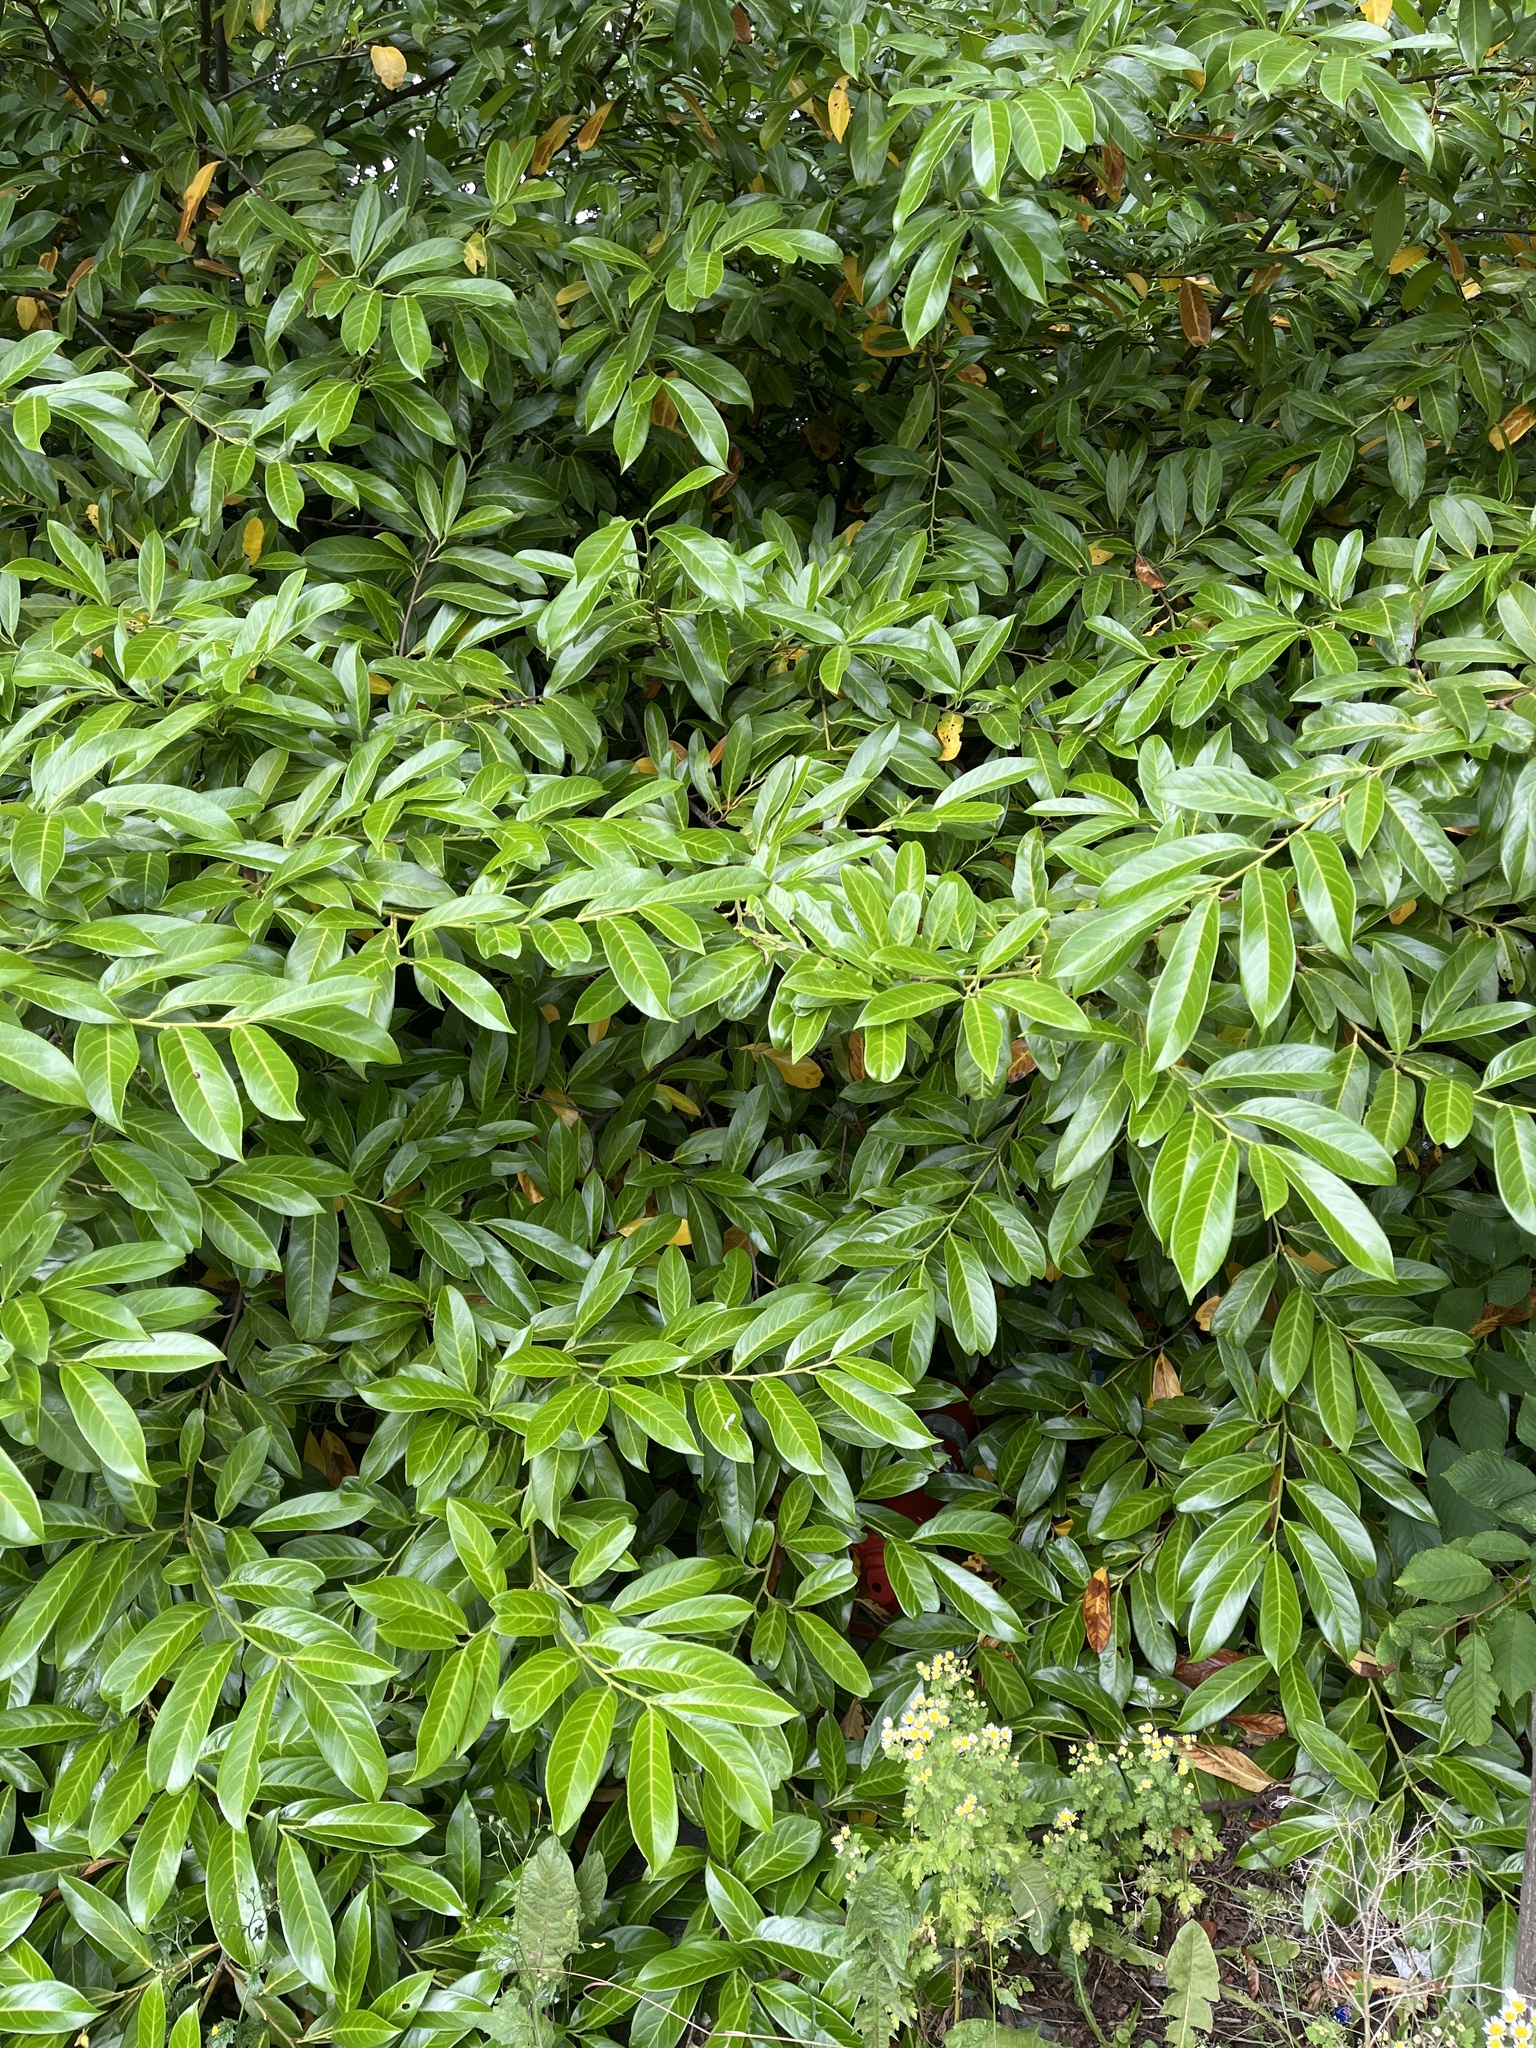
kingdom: Plantae
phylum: Tracheophyta
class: Magnoliopsida
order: Rosales
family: Rosaceae
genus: Prunus
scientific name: Prunus laurocerasus
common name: Cherry laurel
